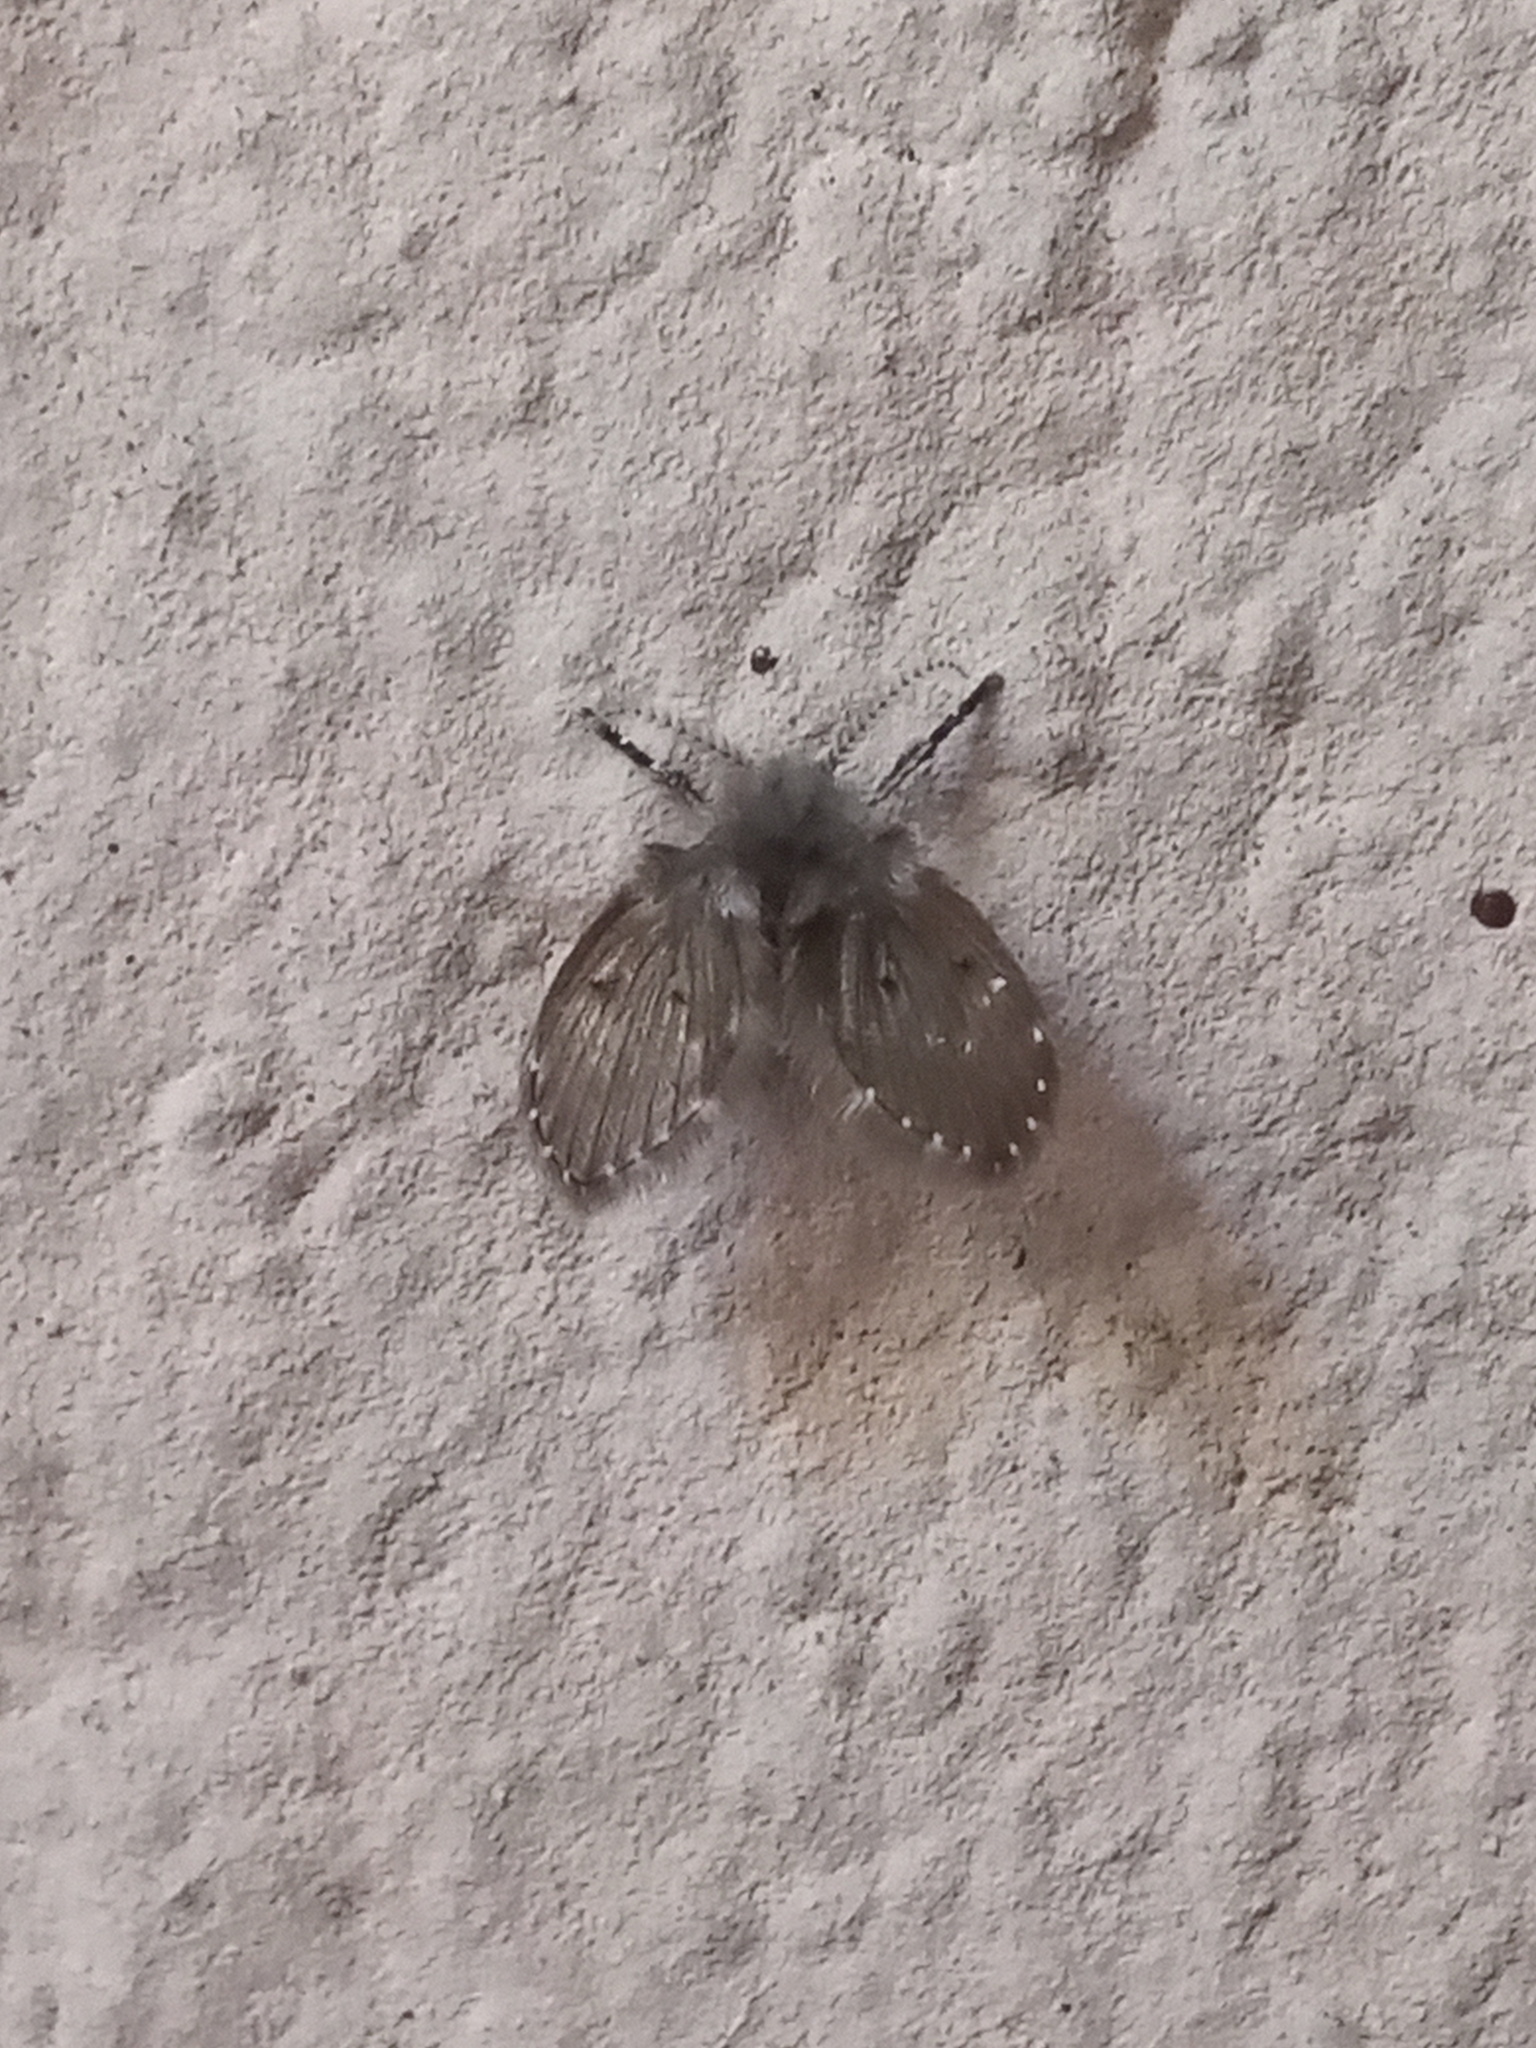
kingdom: Animalia
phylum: Arthropoda
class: Insecta
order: Diptera
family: Psychodidae
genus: Clogmia
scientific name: Clogmia albipunctatus
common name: White-spotted moth fly
